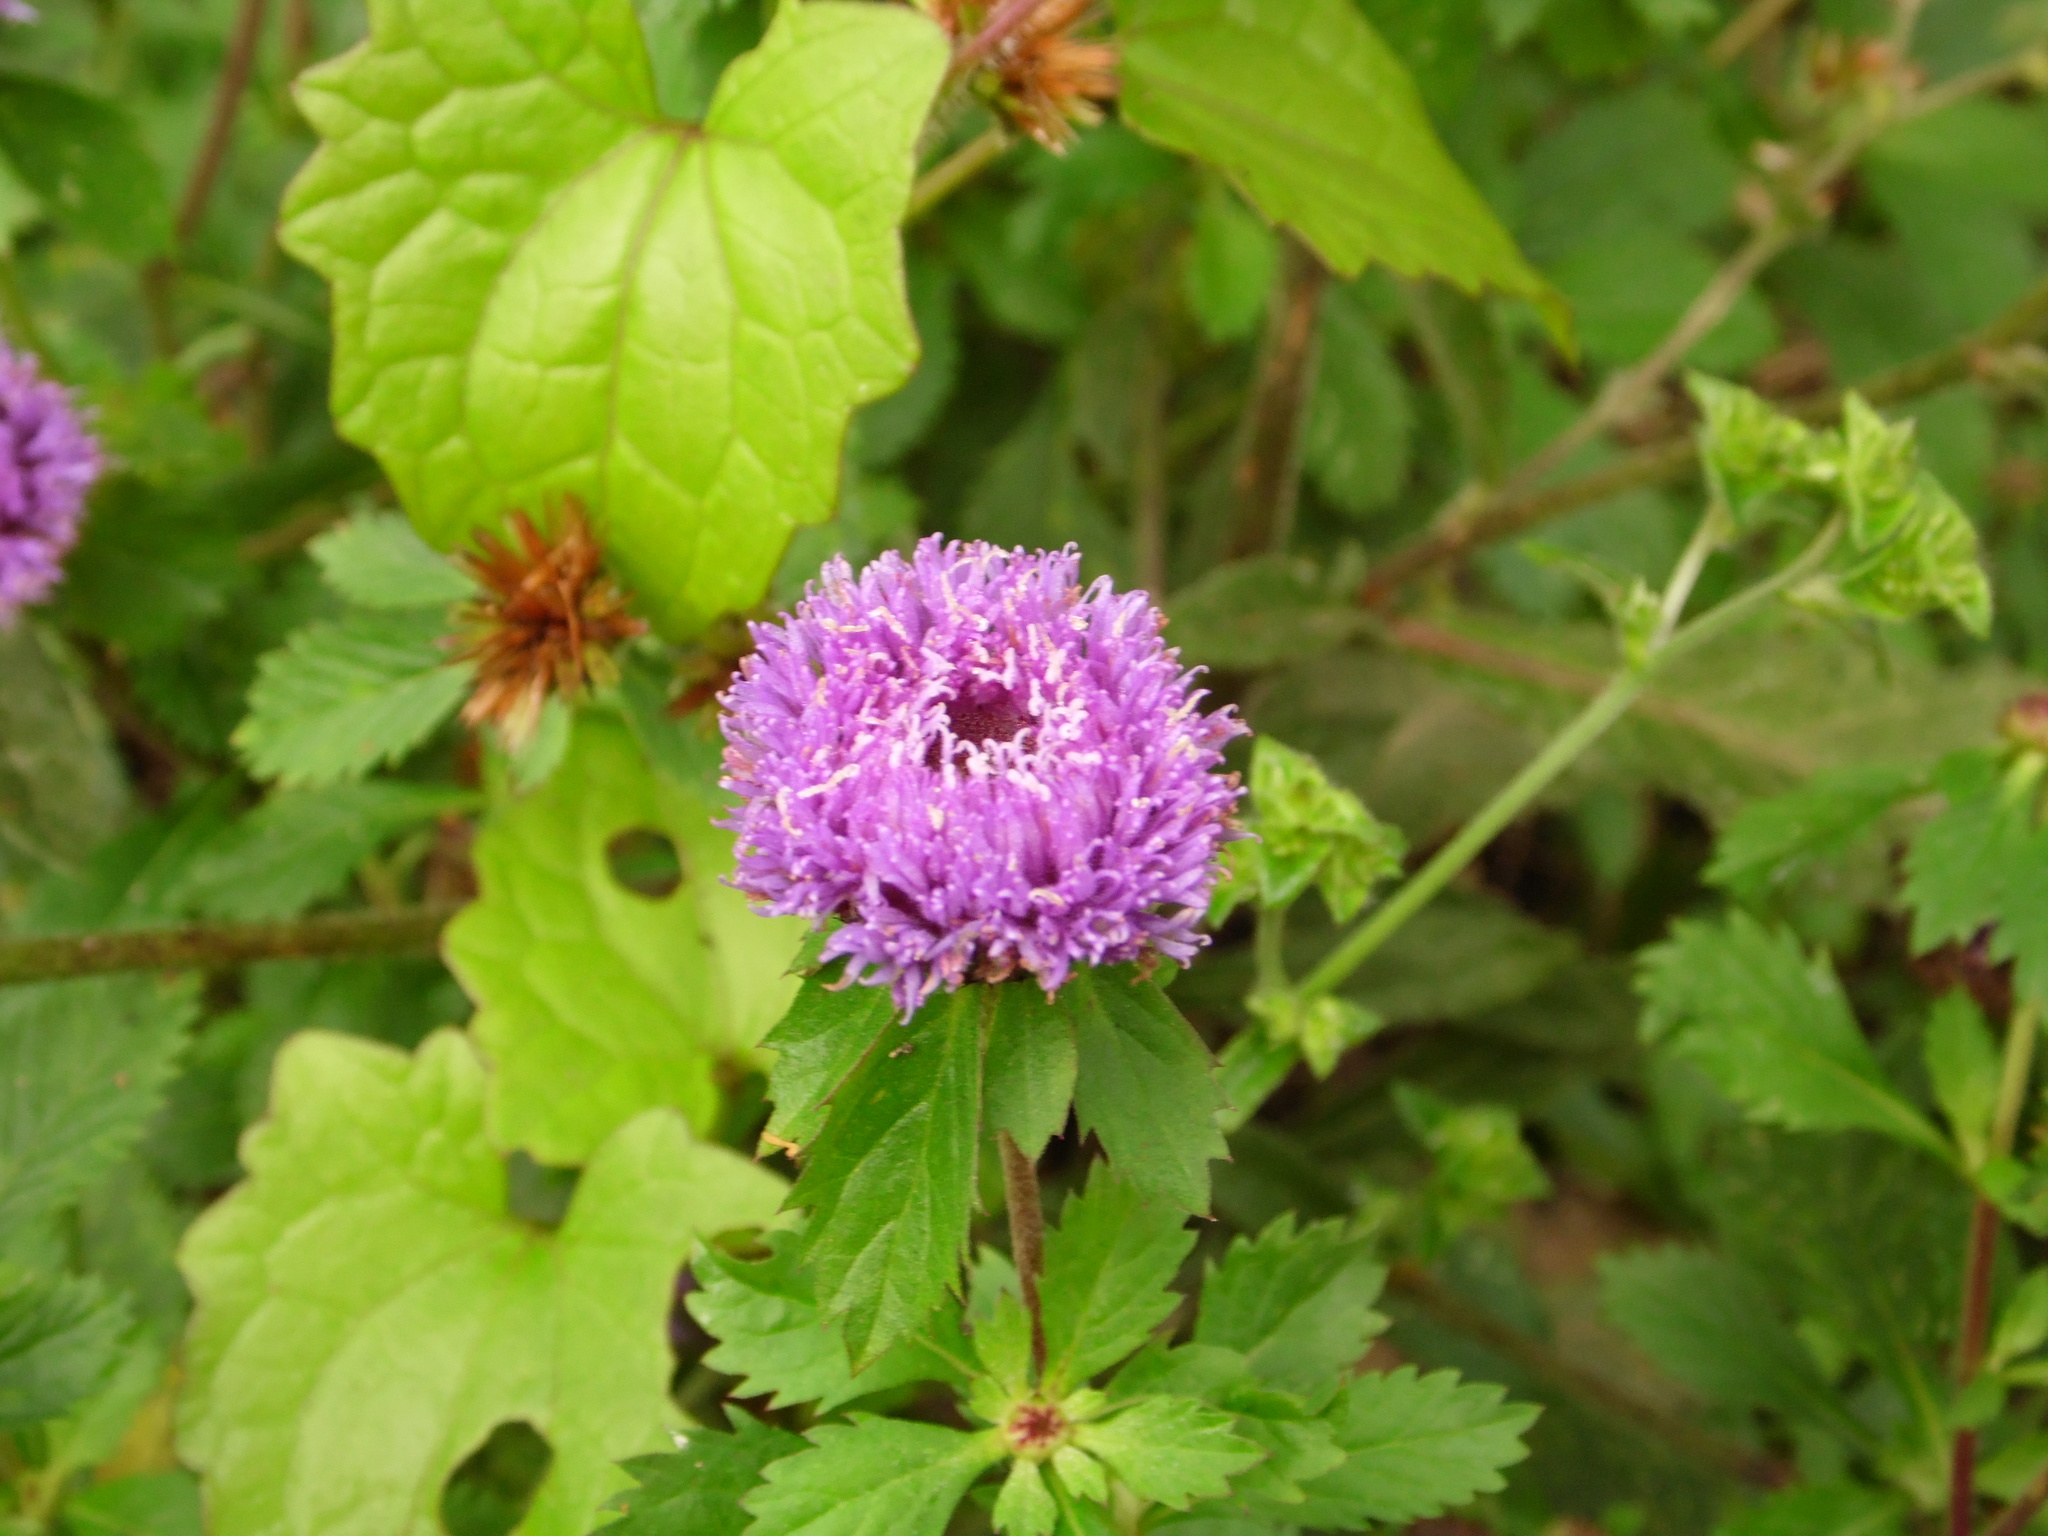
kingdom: Plantae
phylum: Tracheophyta
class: Magnoliopsida
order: Asterales
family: Asteraceae
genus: Centratherum
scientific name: Centratherum punctatum
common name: Larkdaisy
